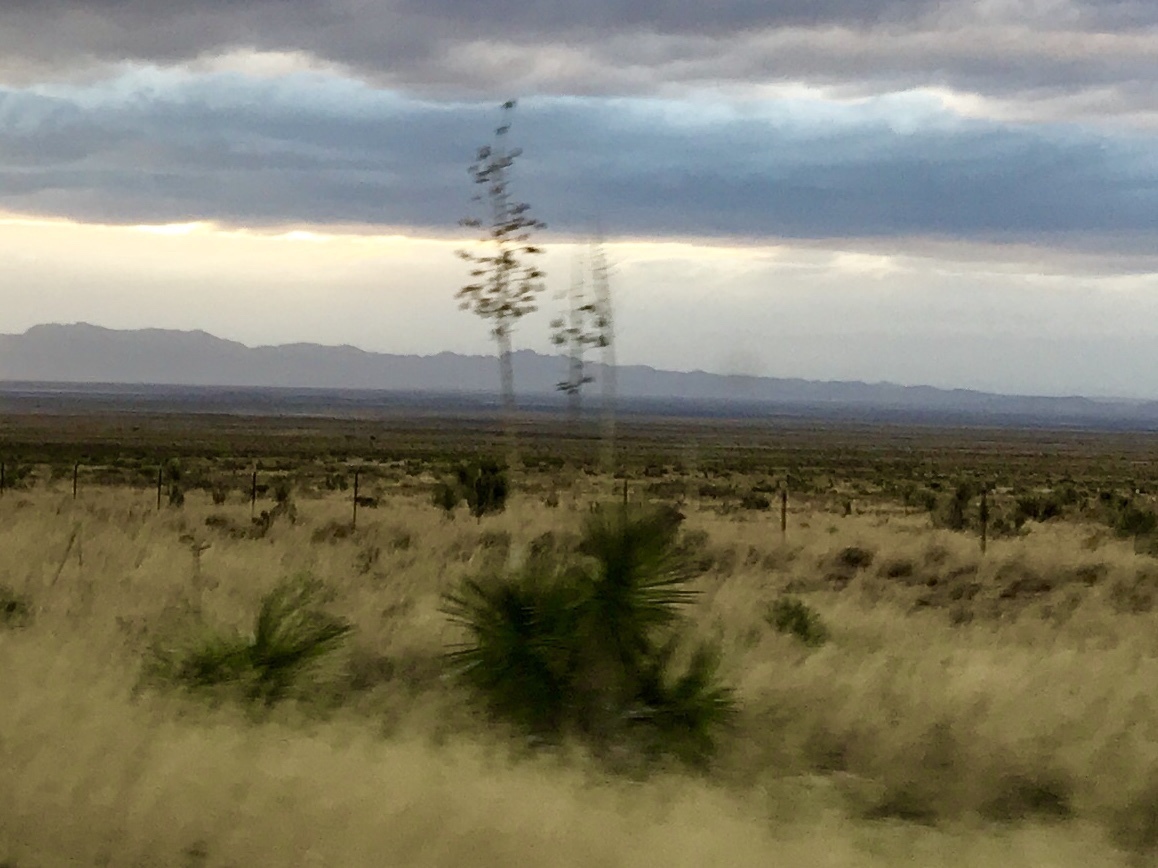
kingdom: Plantae
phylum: Tracheophyta
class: Liliopsida
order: Asparagales
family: Asparagaceae
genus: Yucca
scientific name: Yucca elata
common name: Palmella
